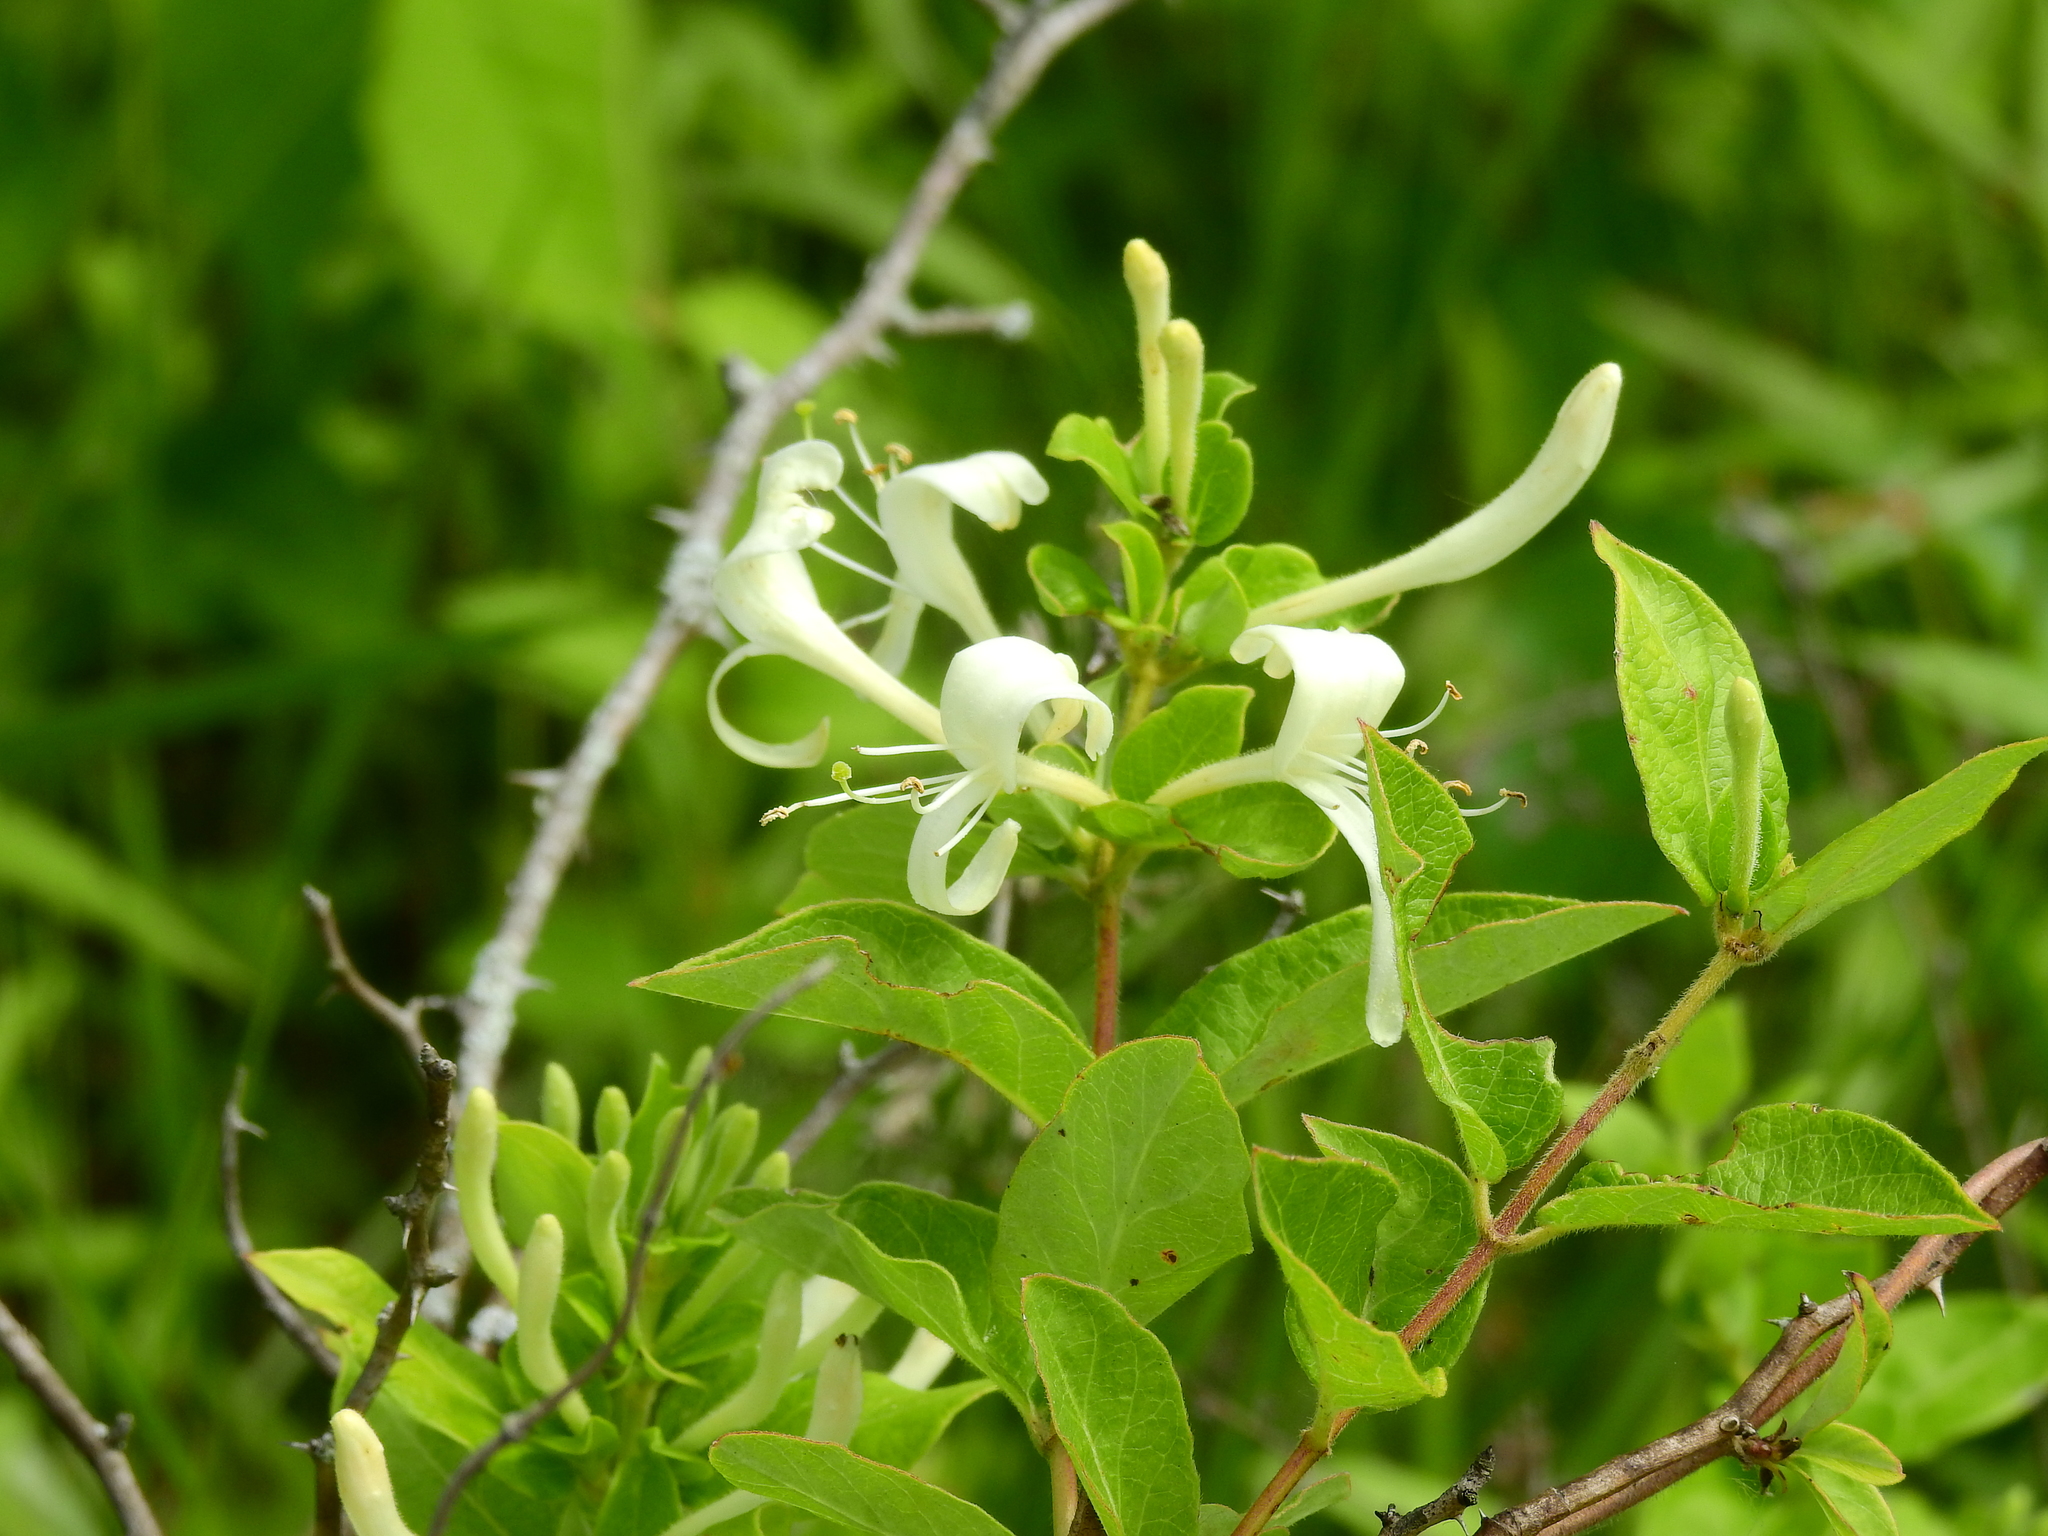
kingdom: Plantae
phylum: Tracheophyta
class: Magnoliopsida
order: Dipsacales
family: Caprifoliaceae
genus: Lonicera
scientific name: Lonicera japonica
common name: Japanese honeysuckle
